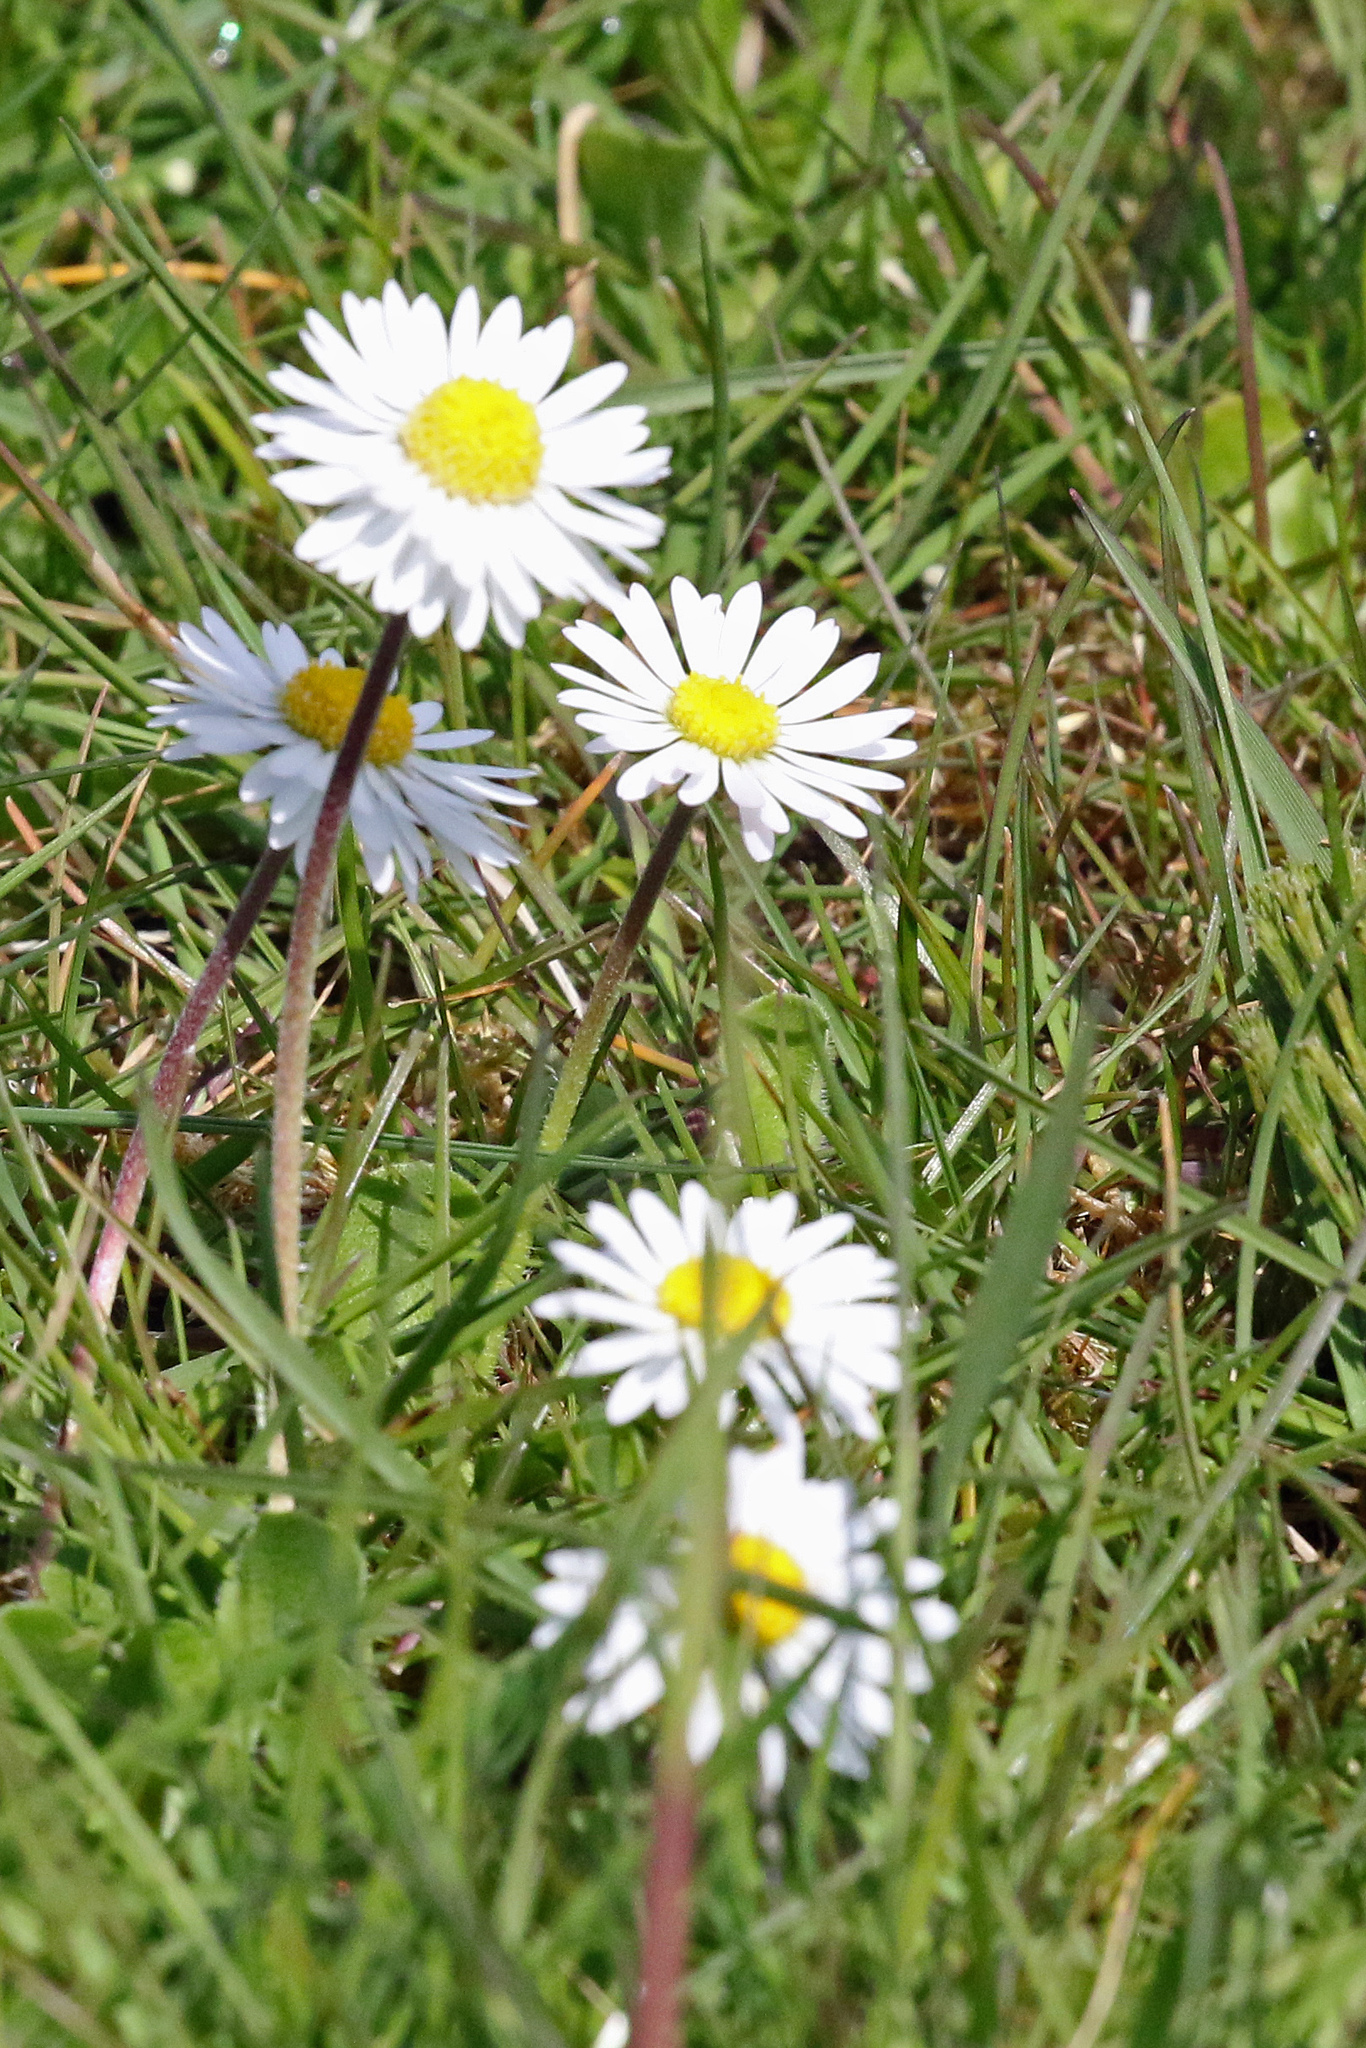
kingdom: Plantae
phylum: Tracheophyta
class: Magnoliopsida
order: Asterales
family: Asteraceae
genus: Bellis
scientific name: Bellis perennis
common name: Lawndaisy
